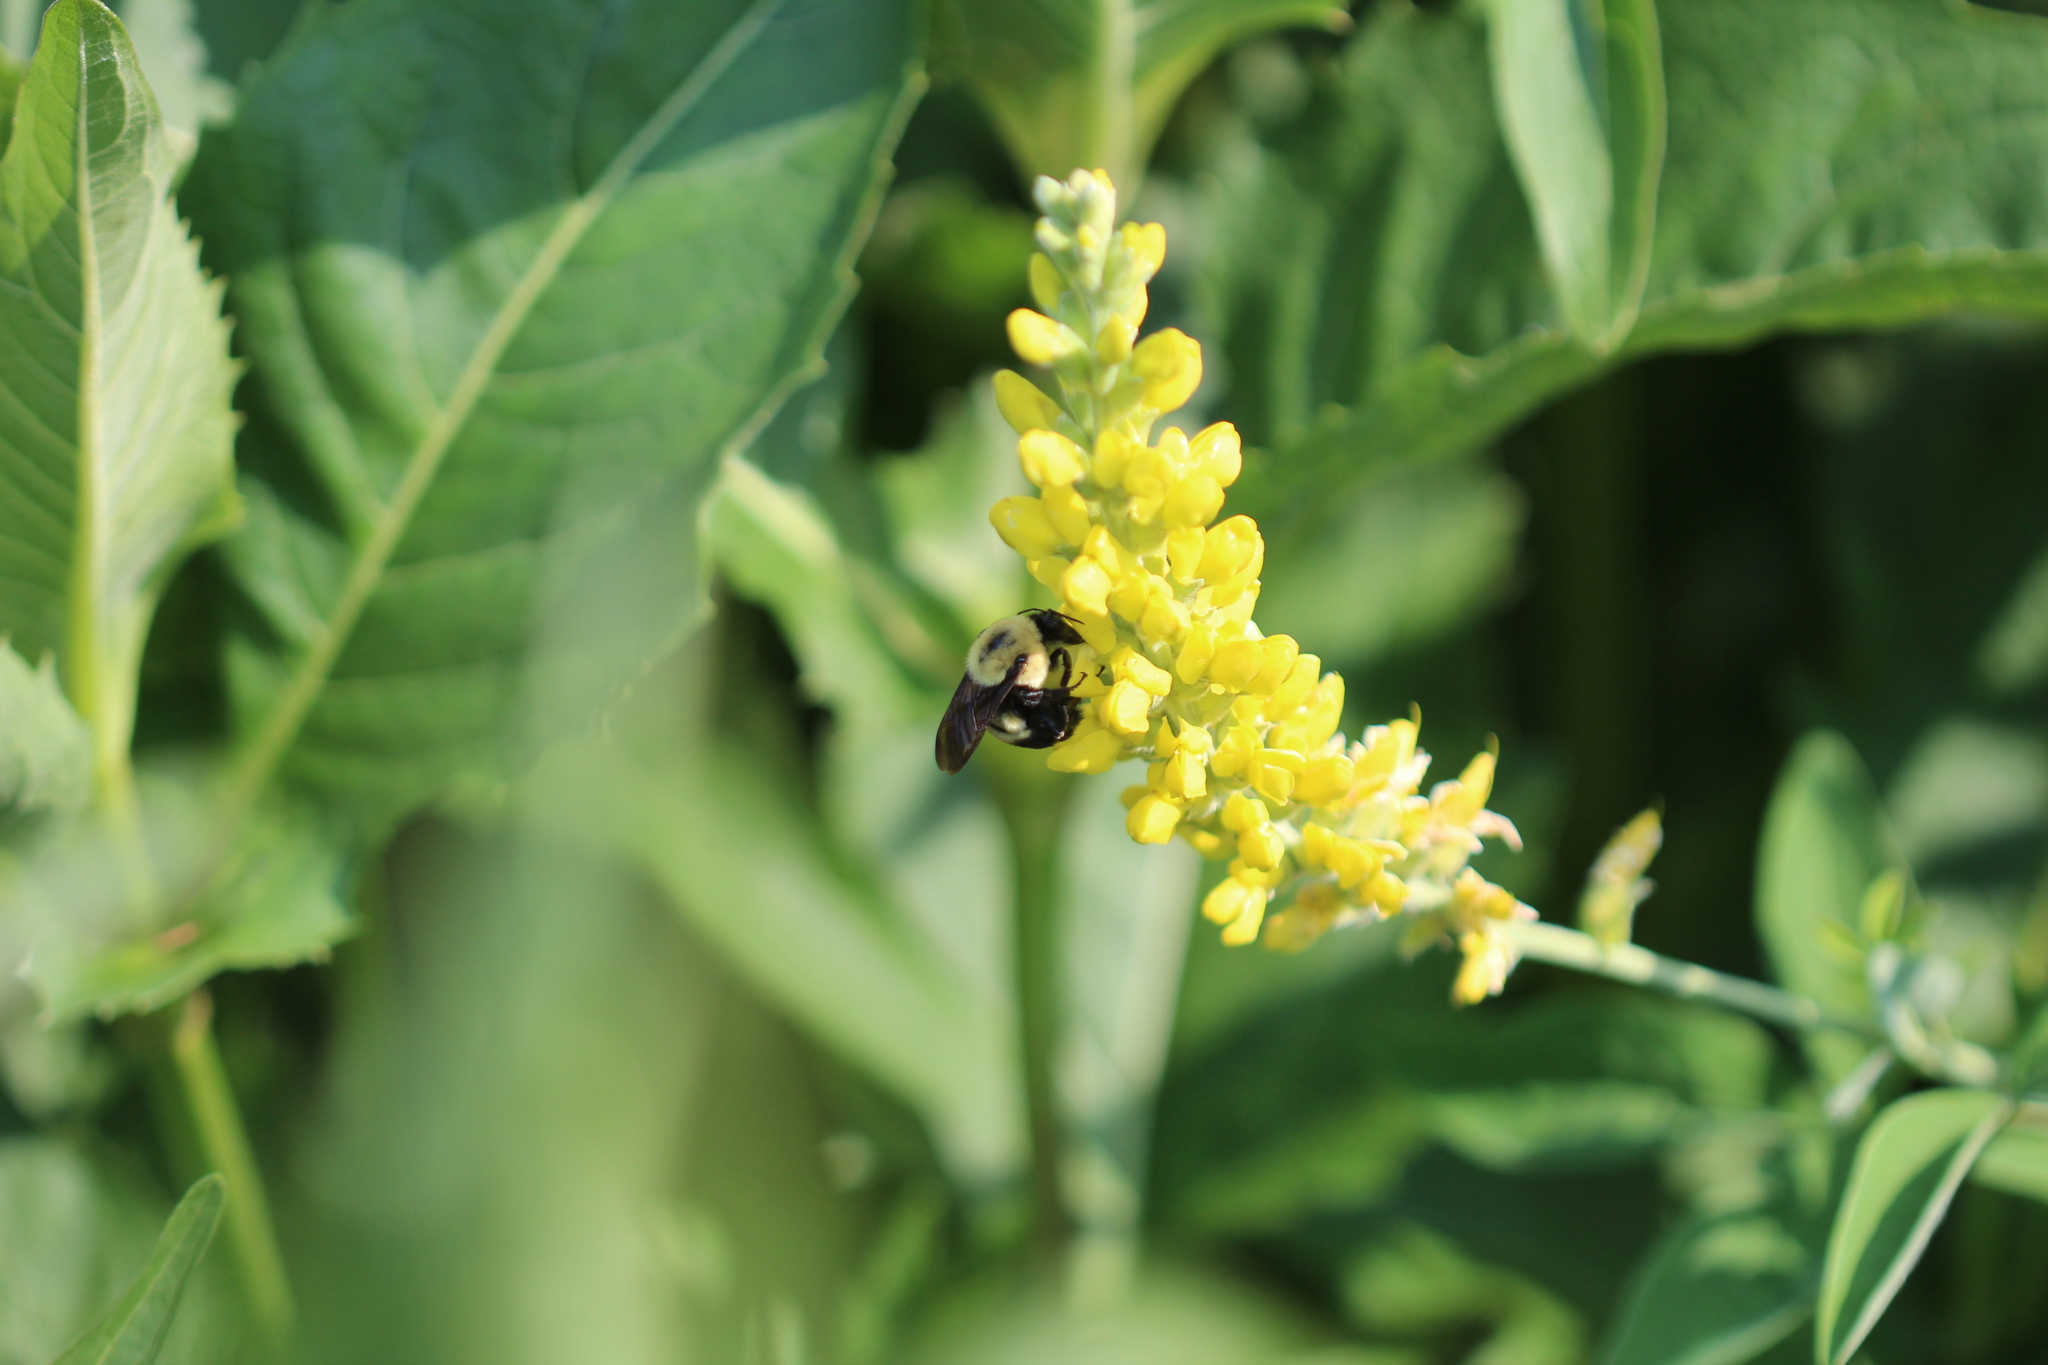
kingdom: Animalia
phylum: Arthropoda
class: Insecta
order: Hymenoptera
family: Apidae
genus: Bombus
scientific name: Bombus griseocollis
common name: Brown-belted bumble bee
